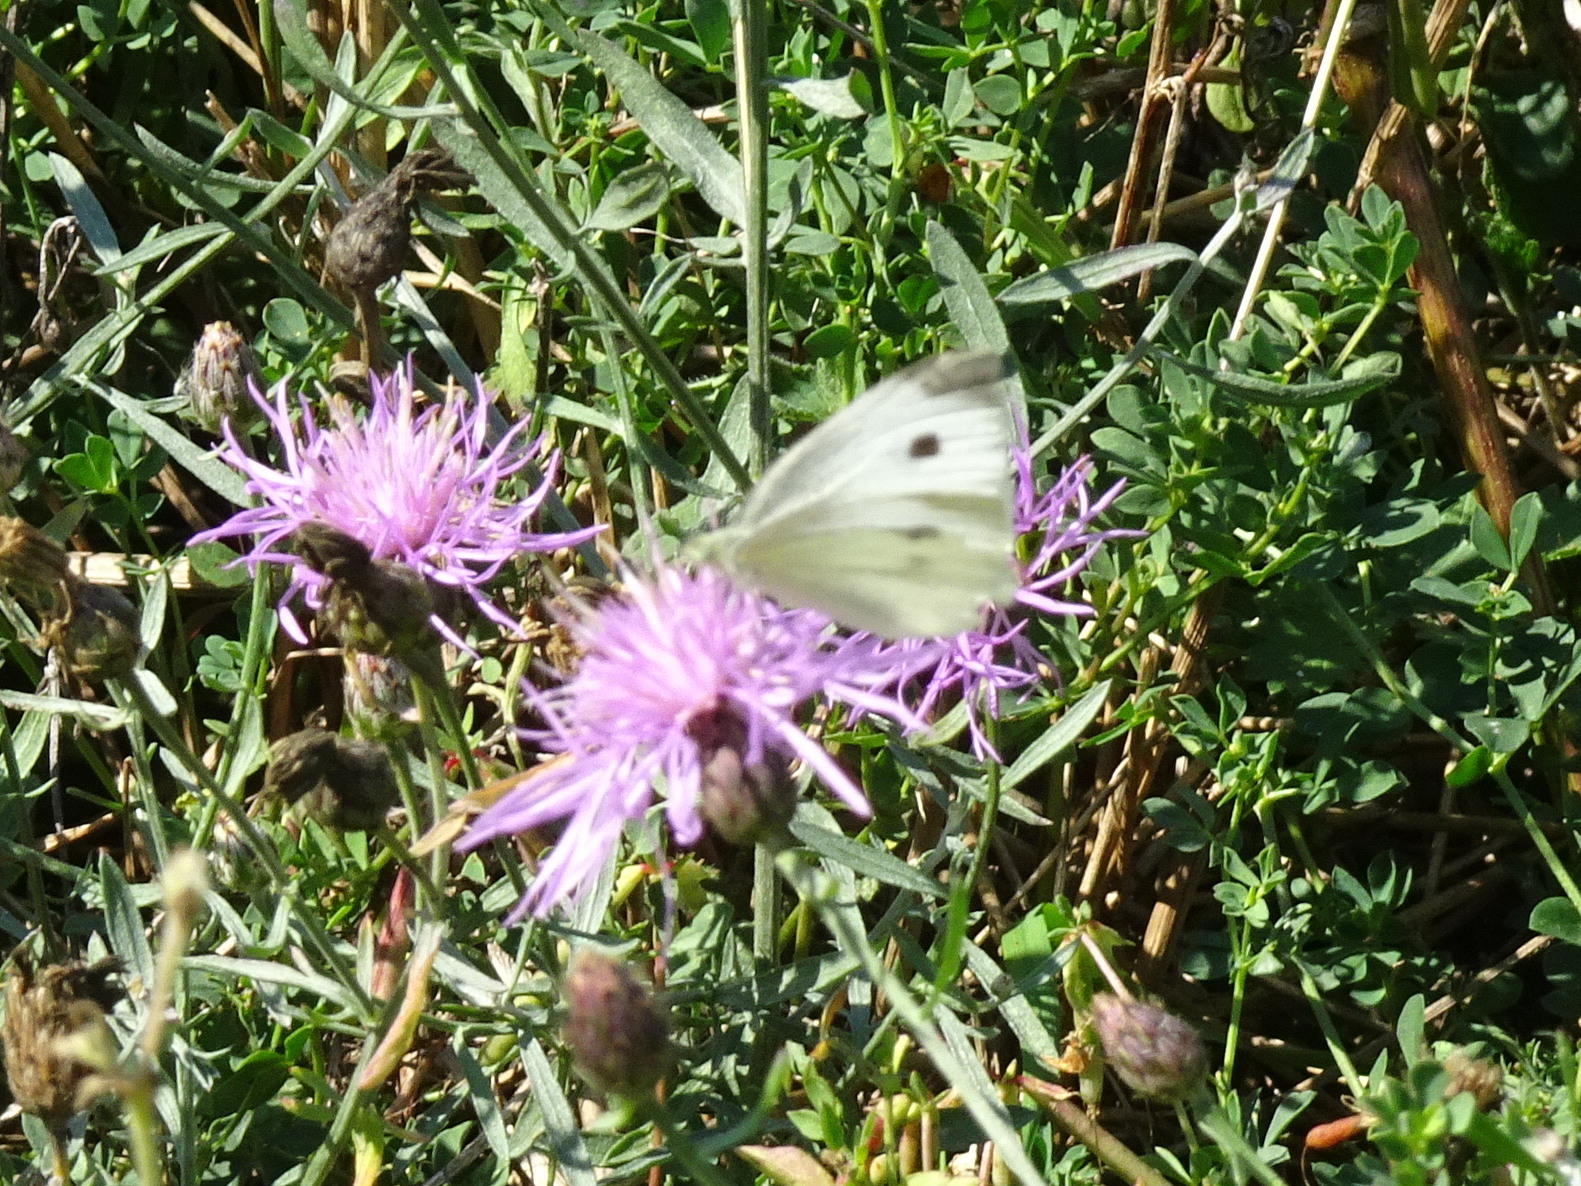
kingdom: Animalia
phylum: Arthropoda
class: Insecta
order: Lepidoptera
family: Pieridae
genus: Pieris
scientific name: Pieris rapae
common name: Small white
